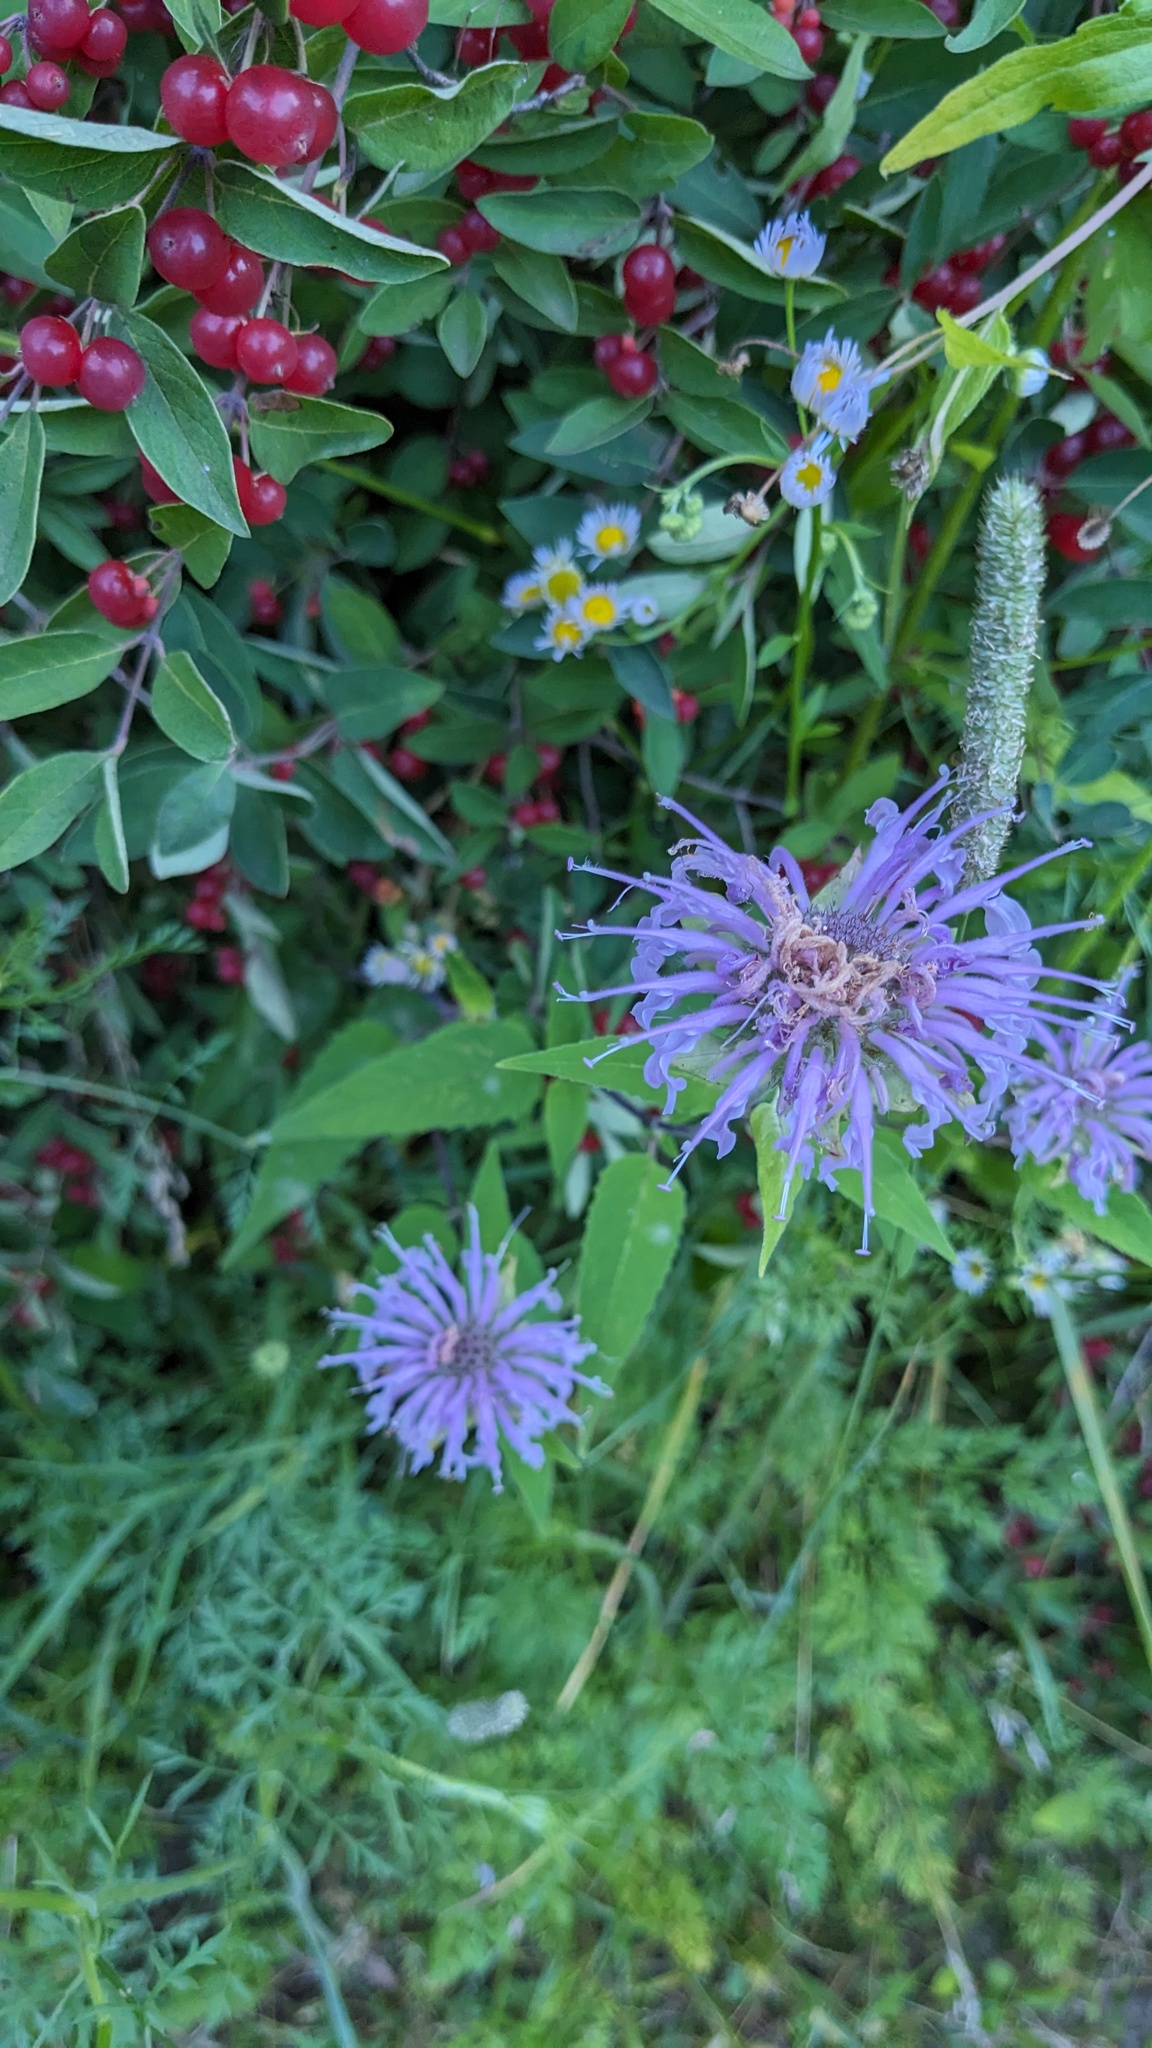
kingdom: Plantae
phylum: Tracheophyta
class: Magnoliopsida
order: Lamiales
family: Lamiaceae
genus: Monarda
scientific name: Monarda fistulosa
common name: Purple beebalm
